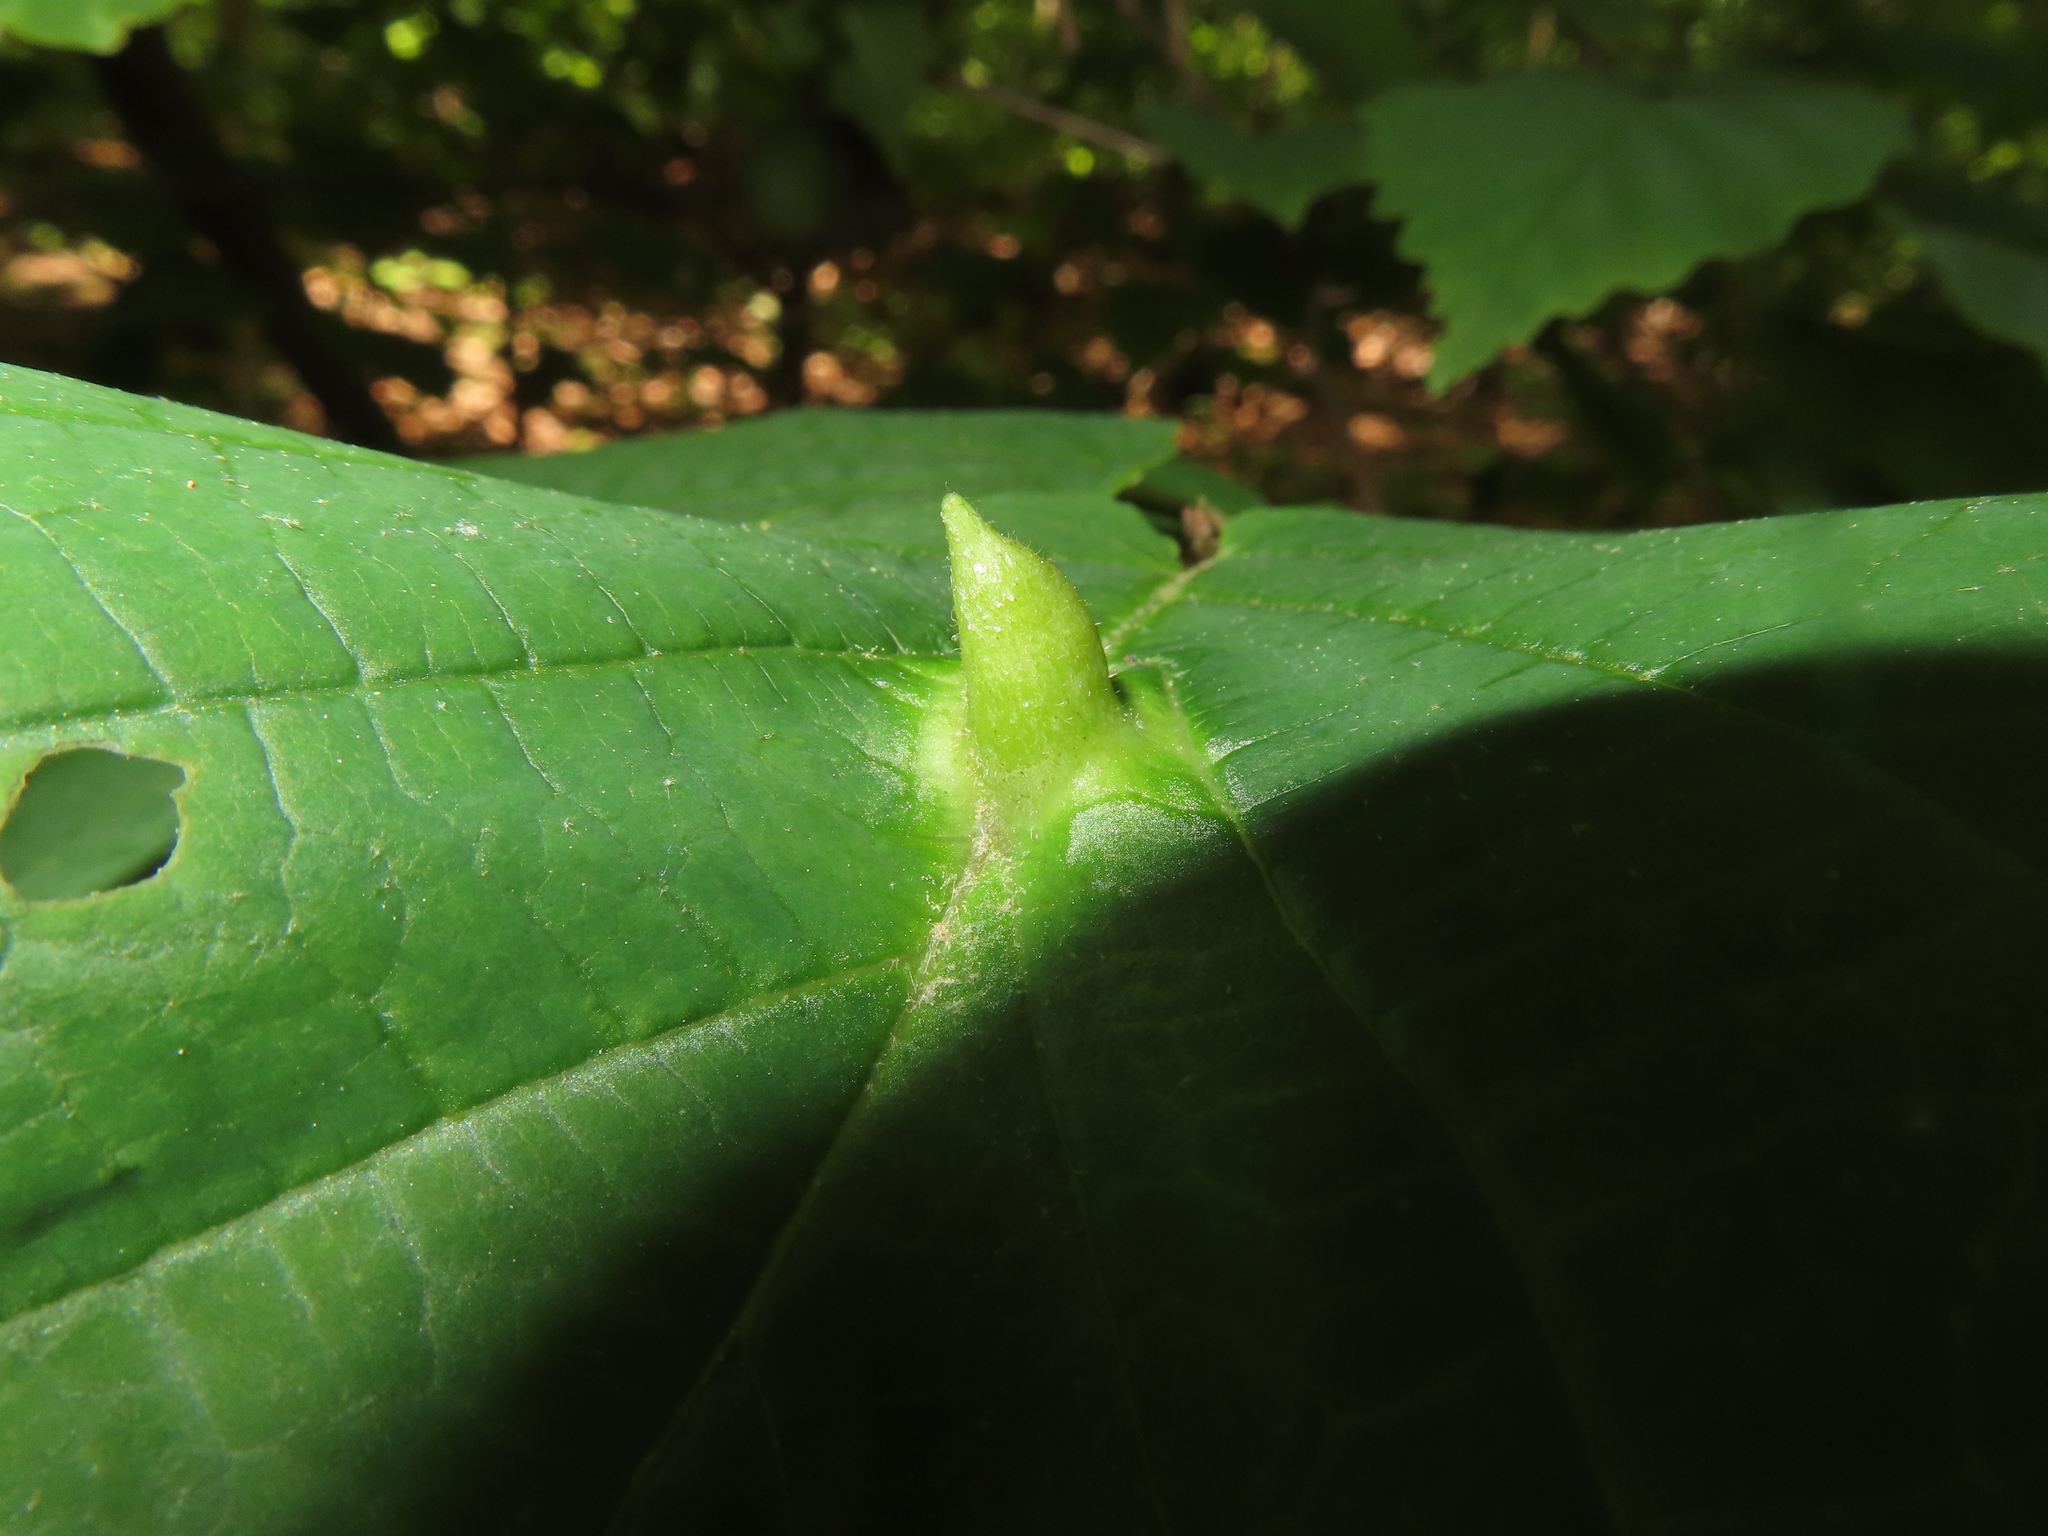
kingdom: Animalia
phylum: Arthropoda
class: Insecta
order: Hemiptera
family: Aphididae
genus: Hormaphis
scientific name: Hormaphis hamamelidis
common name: Witch-hazel cone gall aphid
